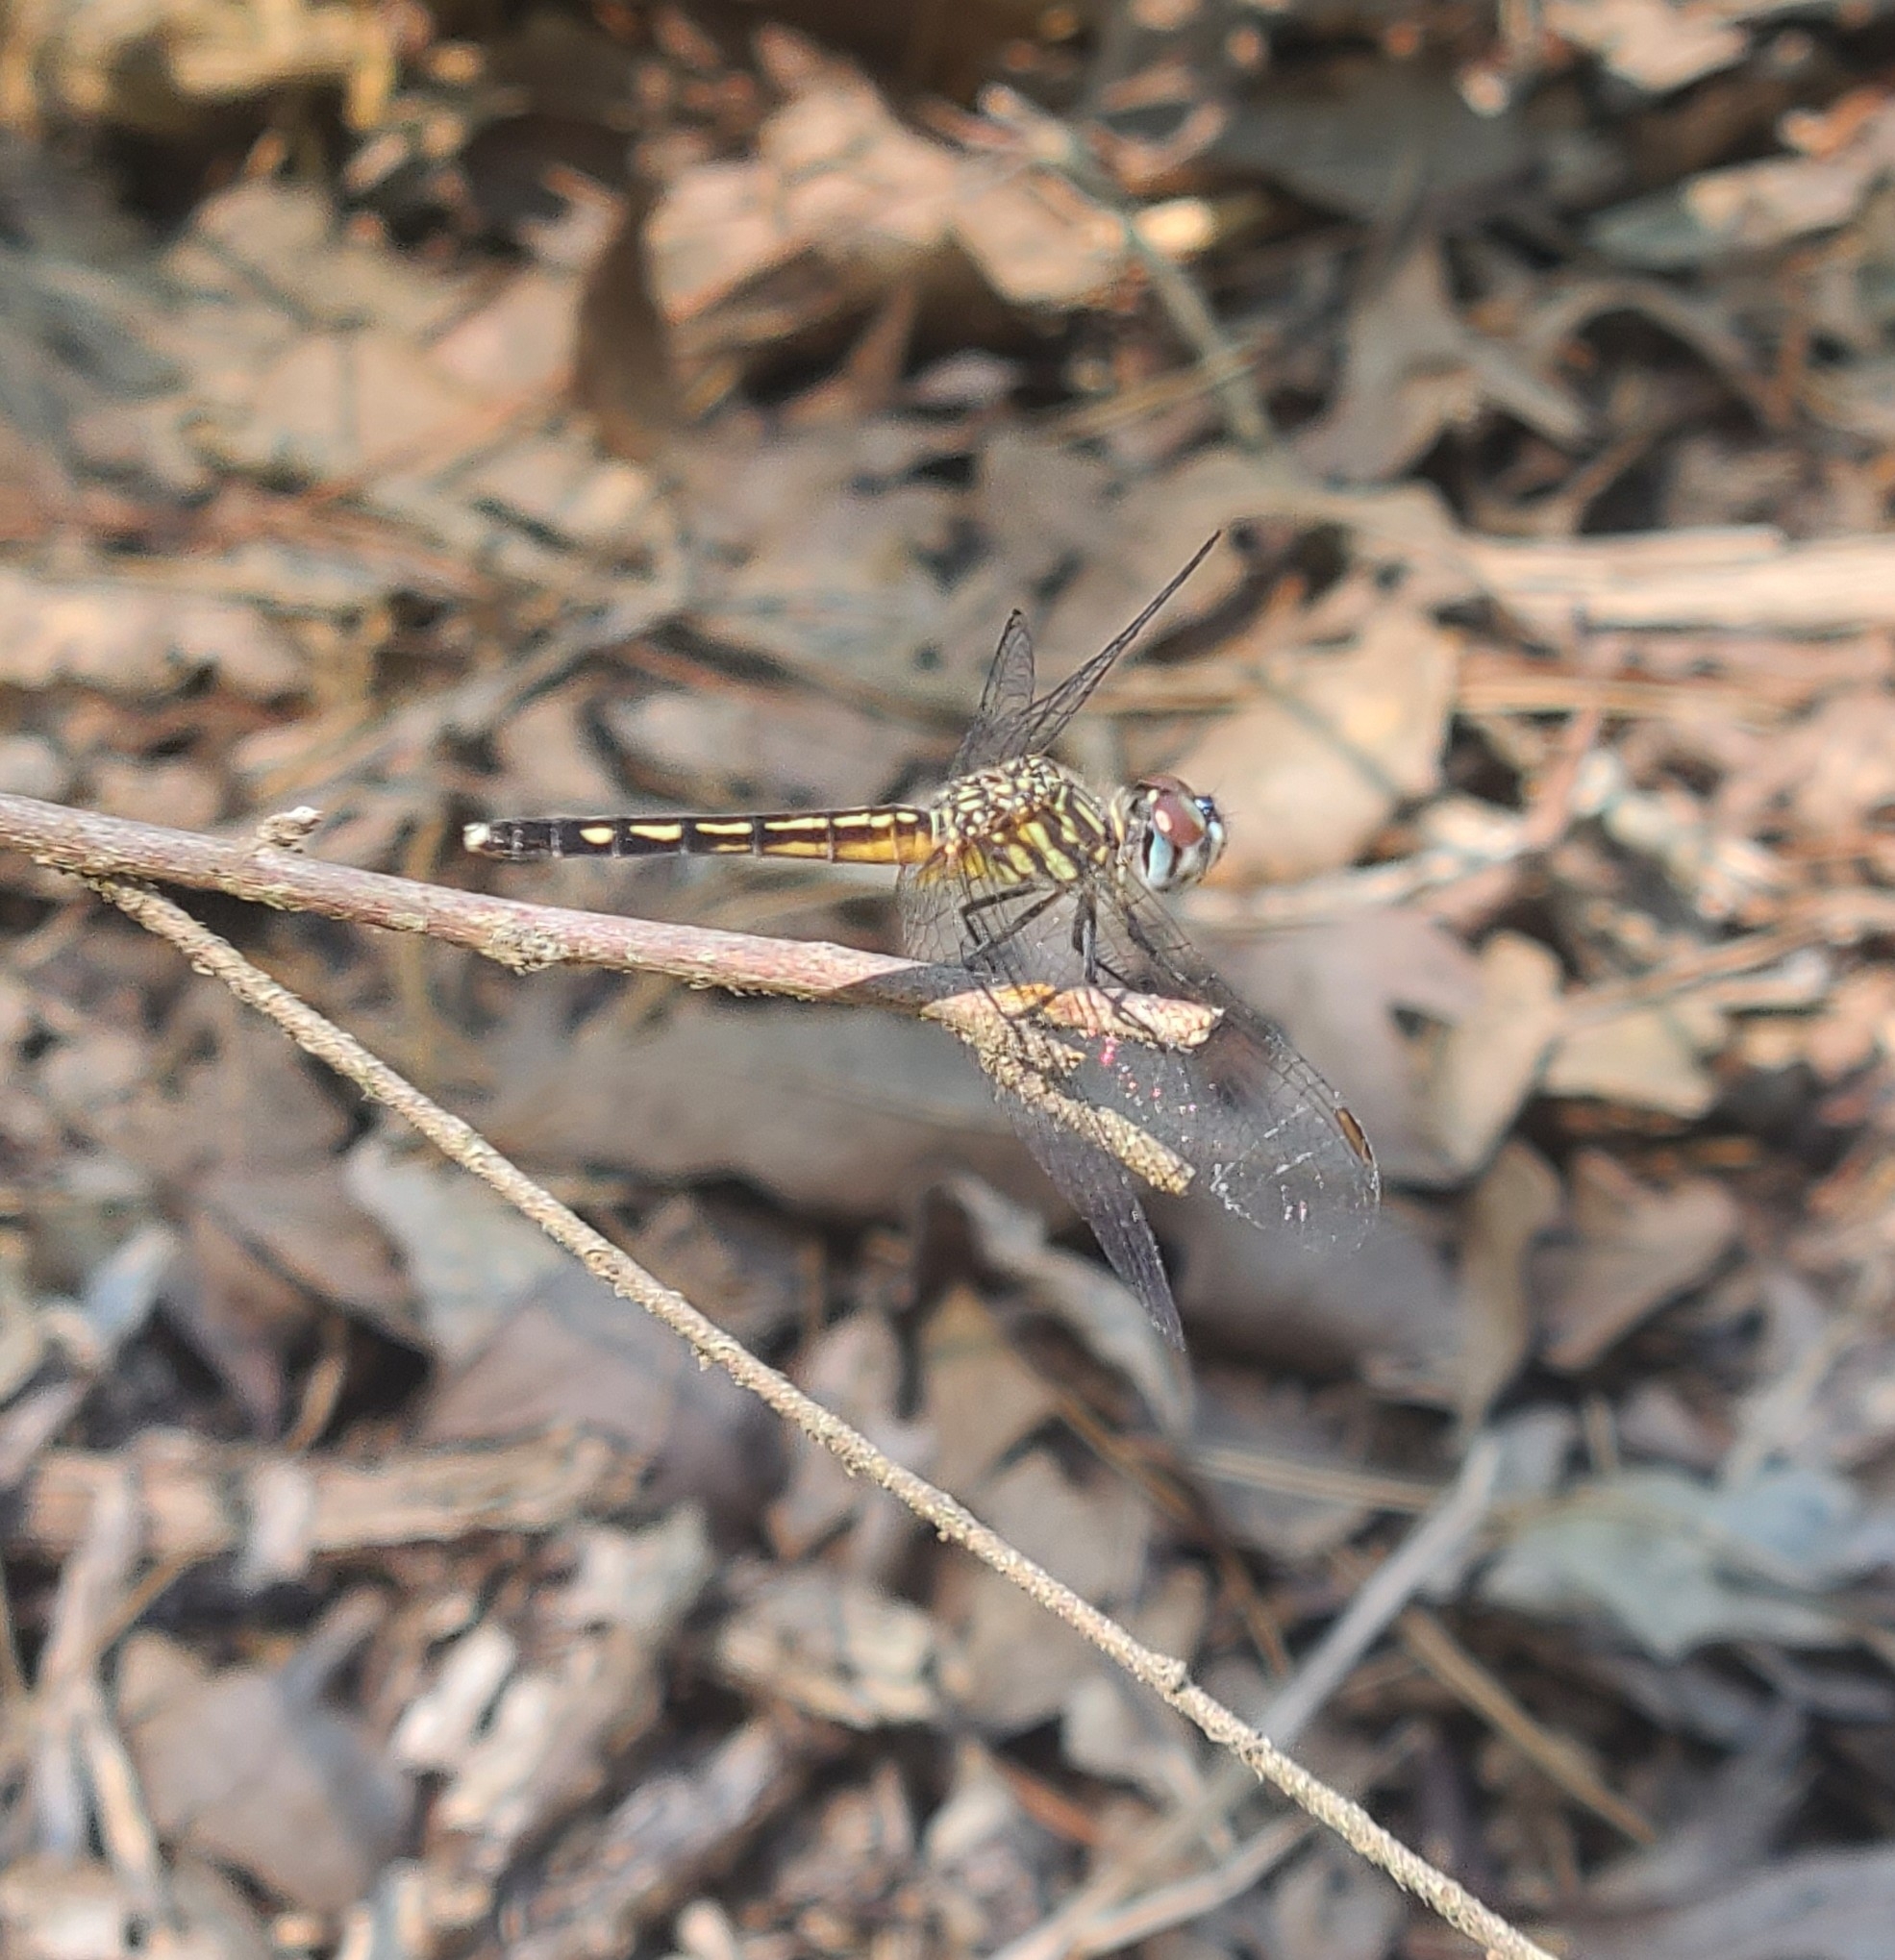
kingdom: Animalia
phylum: Arthropoda
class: Insecta
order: Odonata
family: Libellulidae
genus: Pachydiplax
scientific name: Pachydiplax longipennis
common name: Blue dasher
